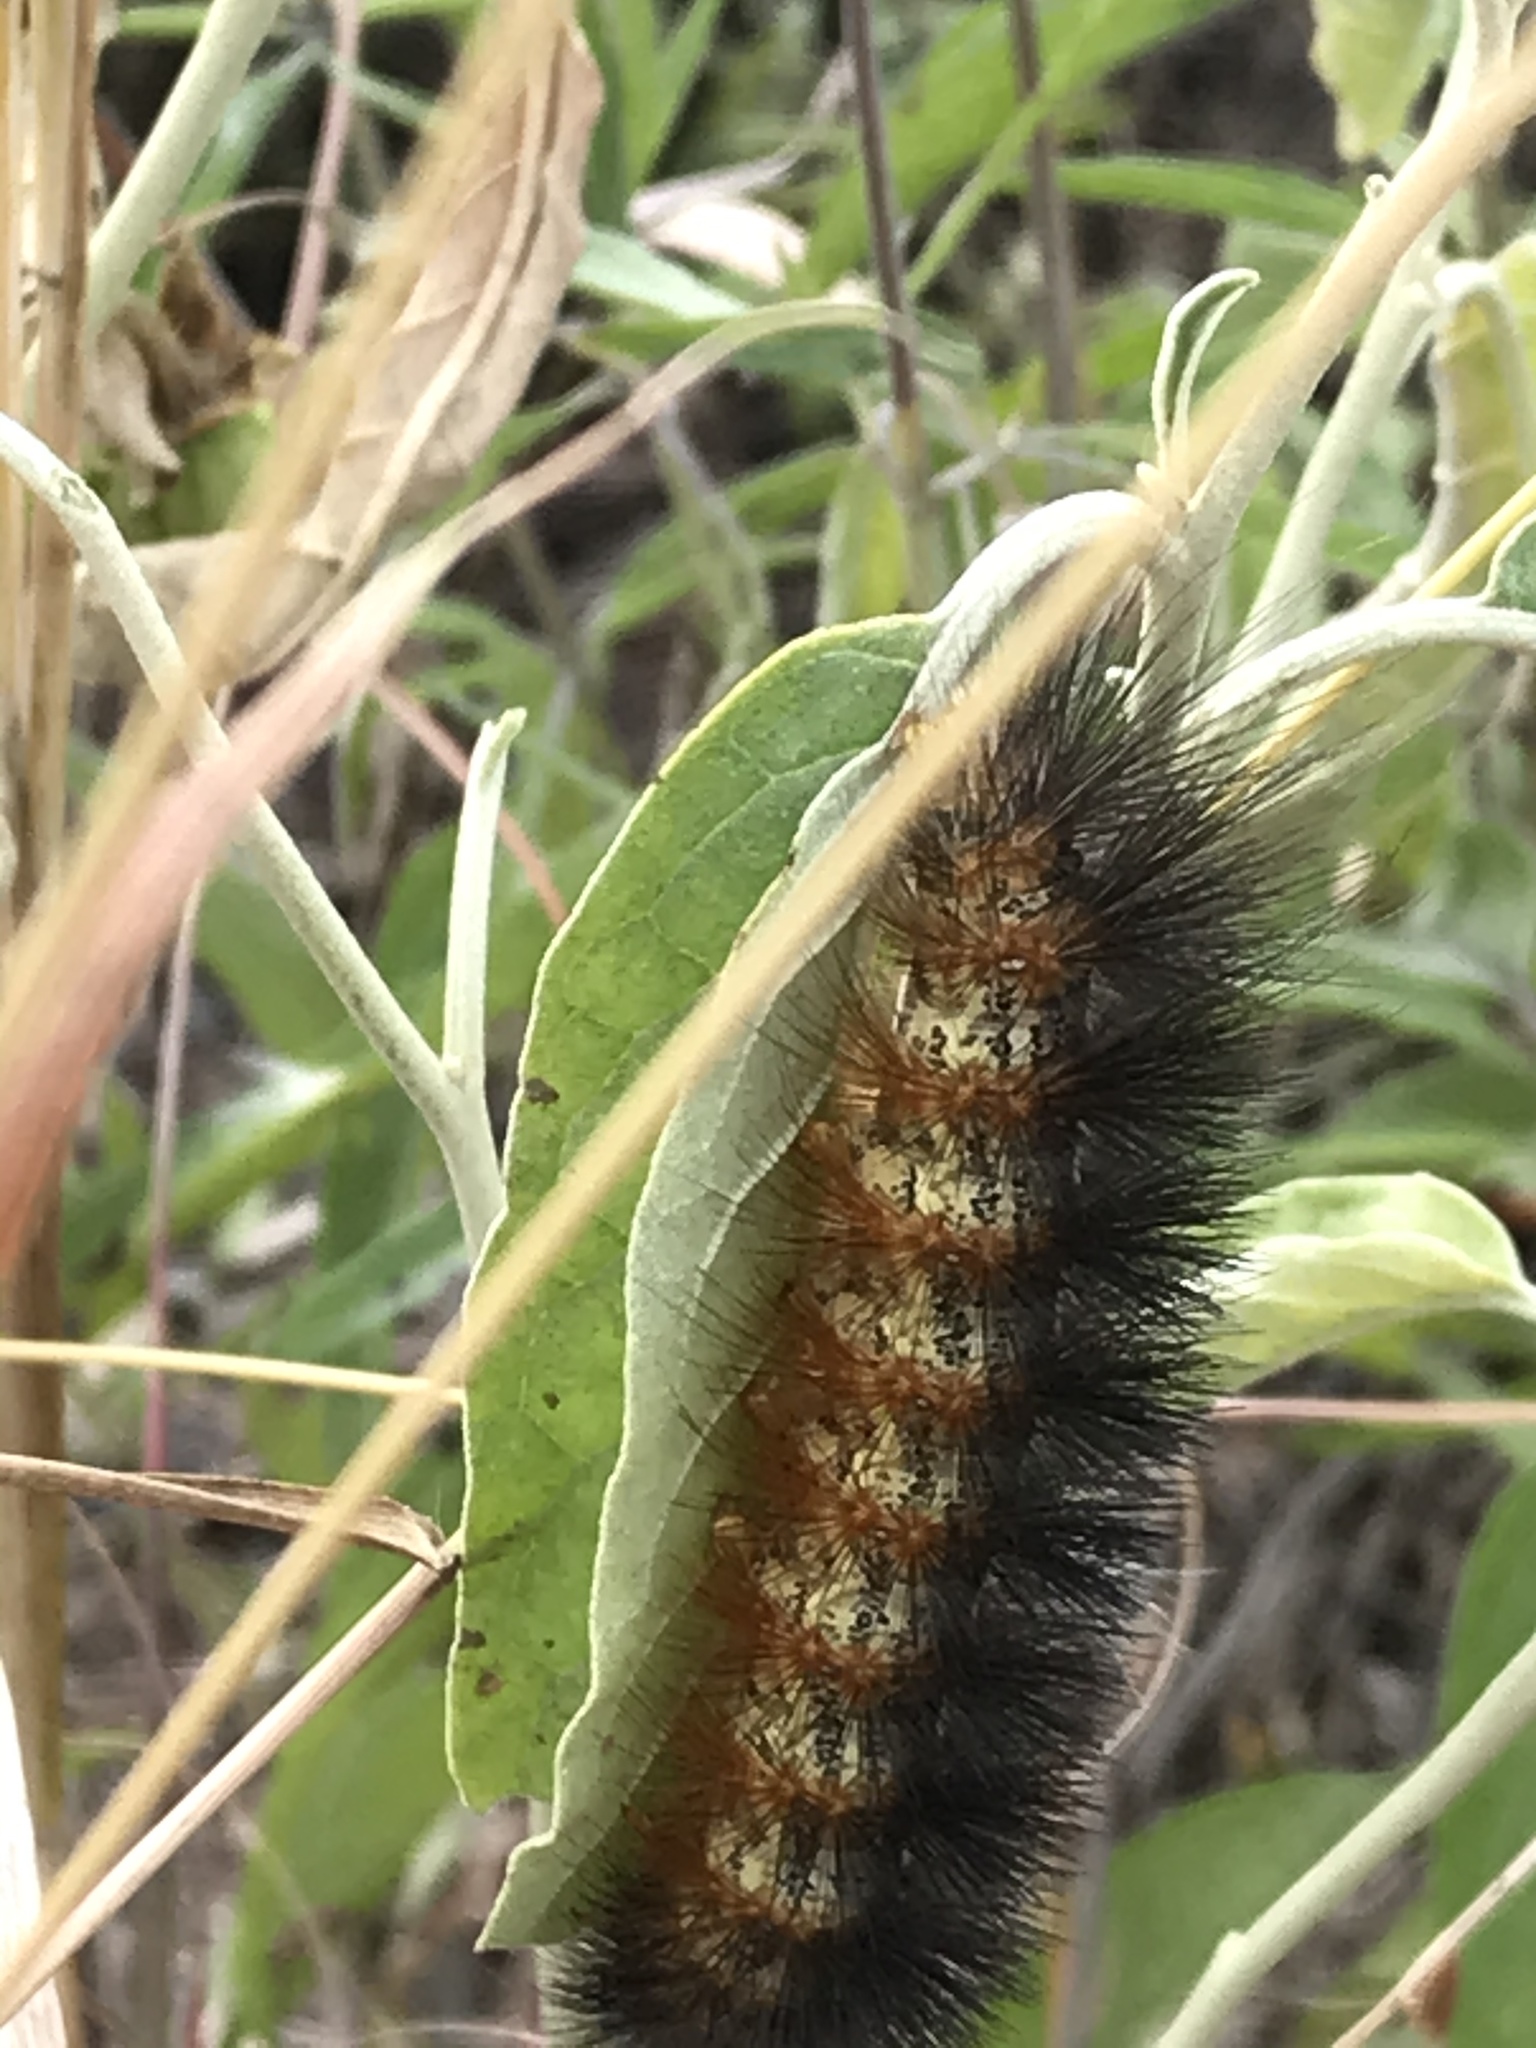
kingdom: Animalia
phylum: Arthropoda
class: Insecta
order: Lepidoptera
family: Erebidae
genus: Estigmene
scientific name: Estigmene acrea
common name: Salt marsh moth
